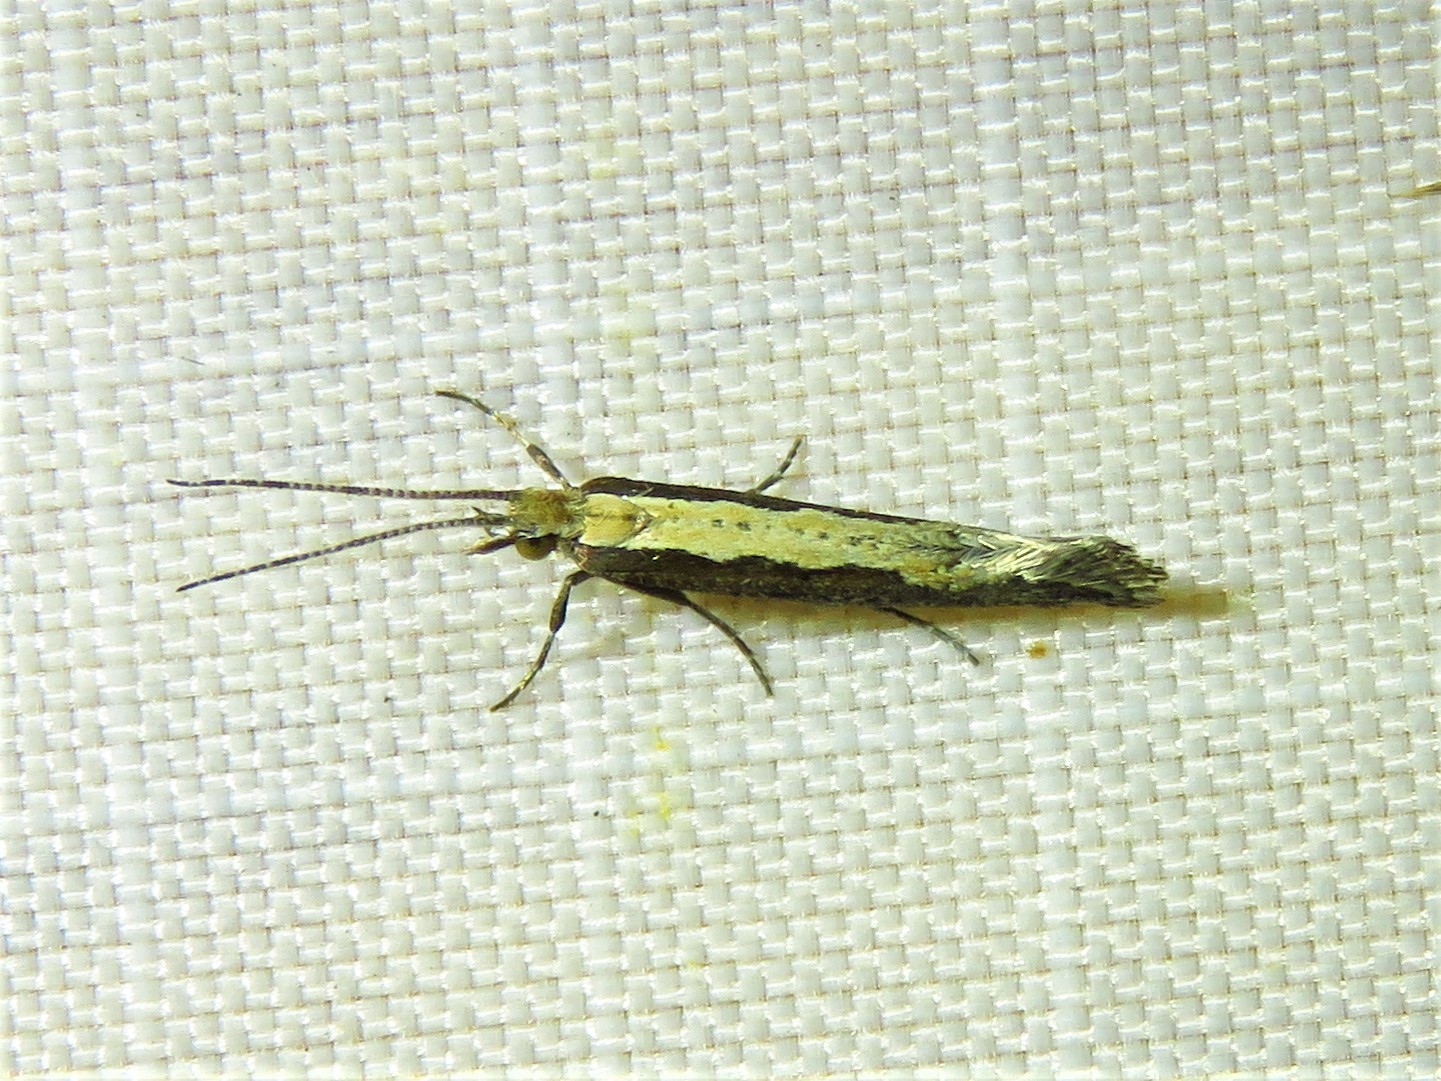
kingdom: Animalia
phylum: Arthropoda
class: Insecta
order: Lepidoptera
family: Plutellidae
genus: Plutella
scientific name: Plutella xylostella
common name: Diamond-back moth
